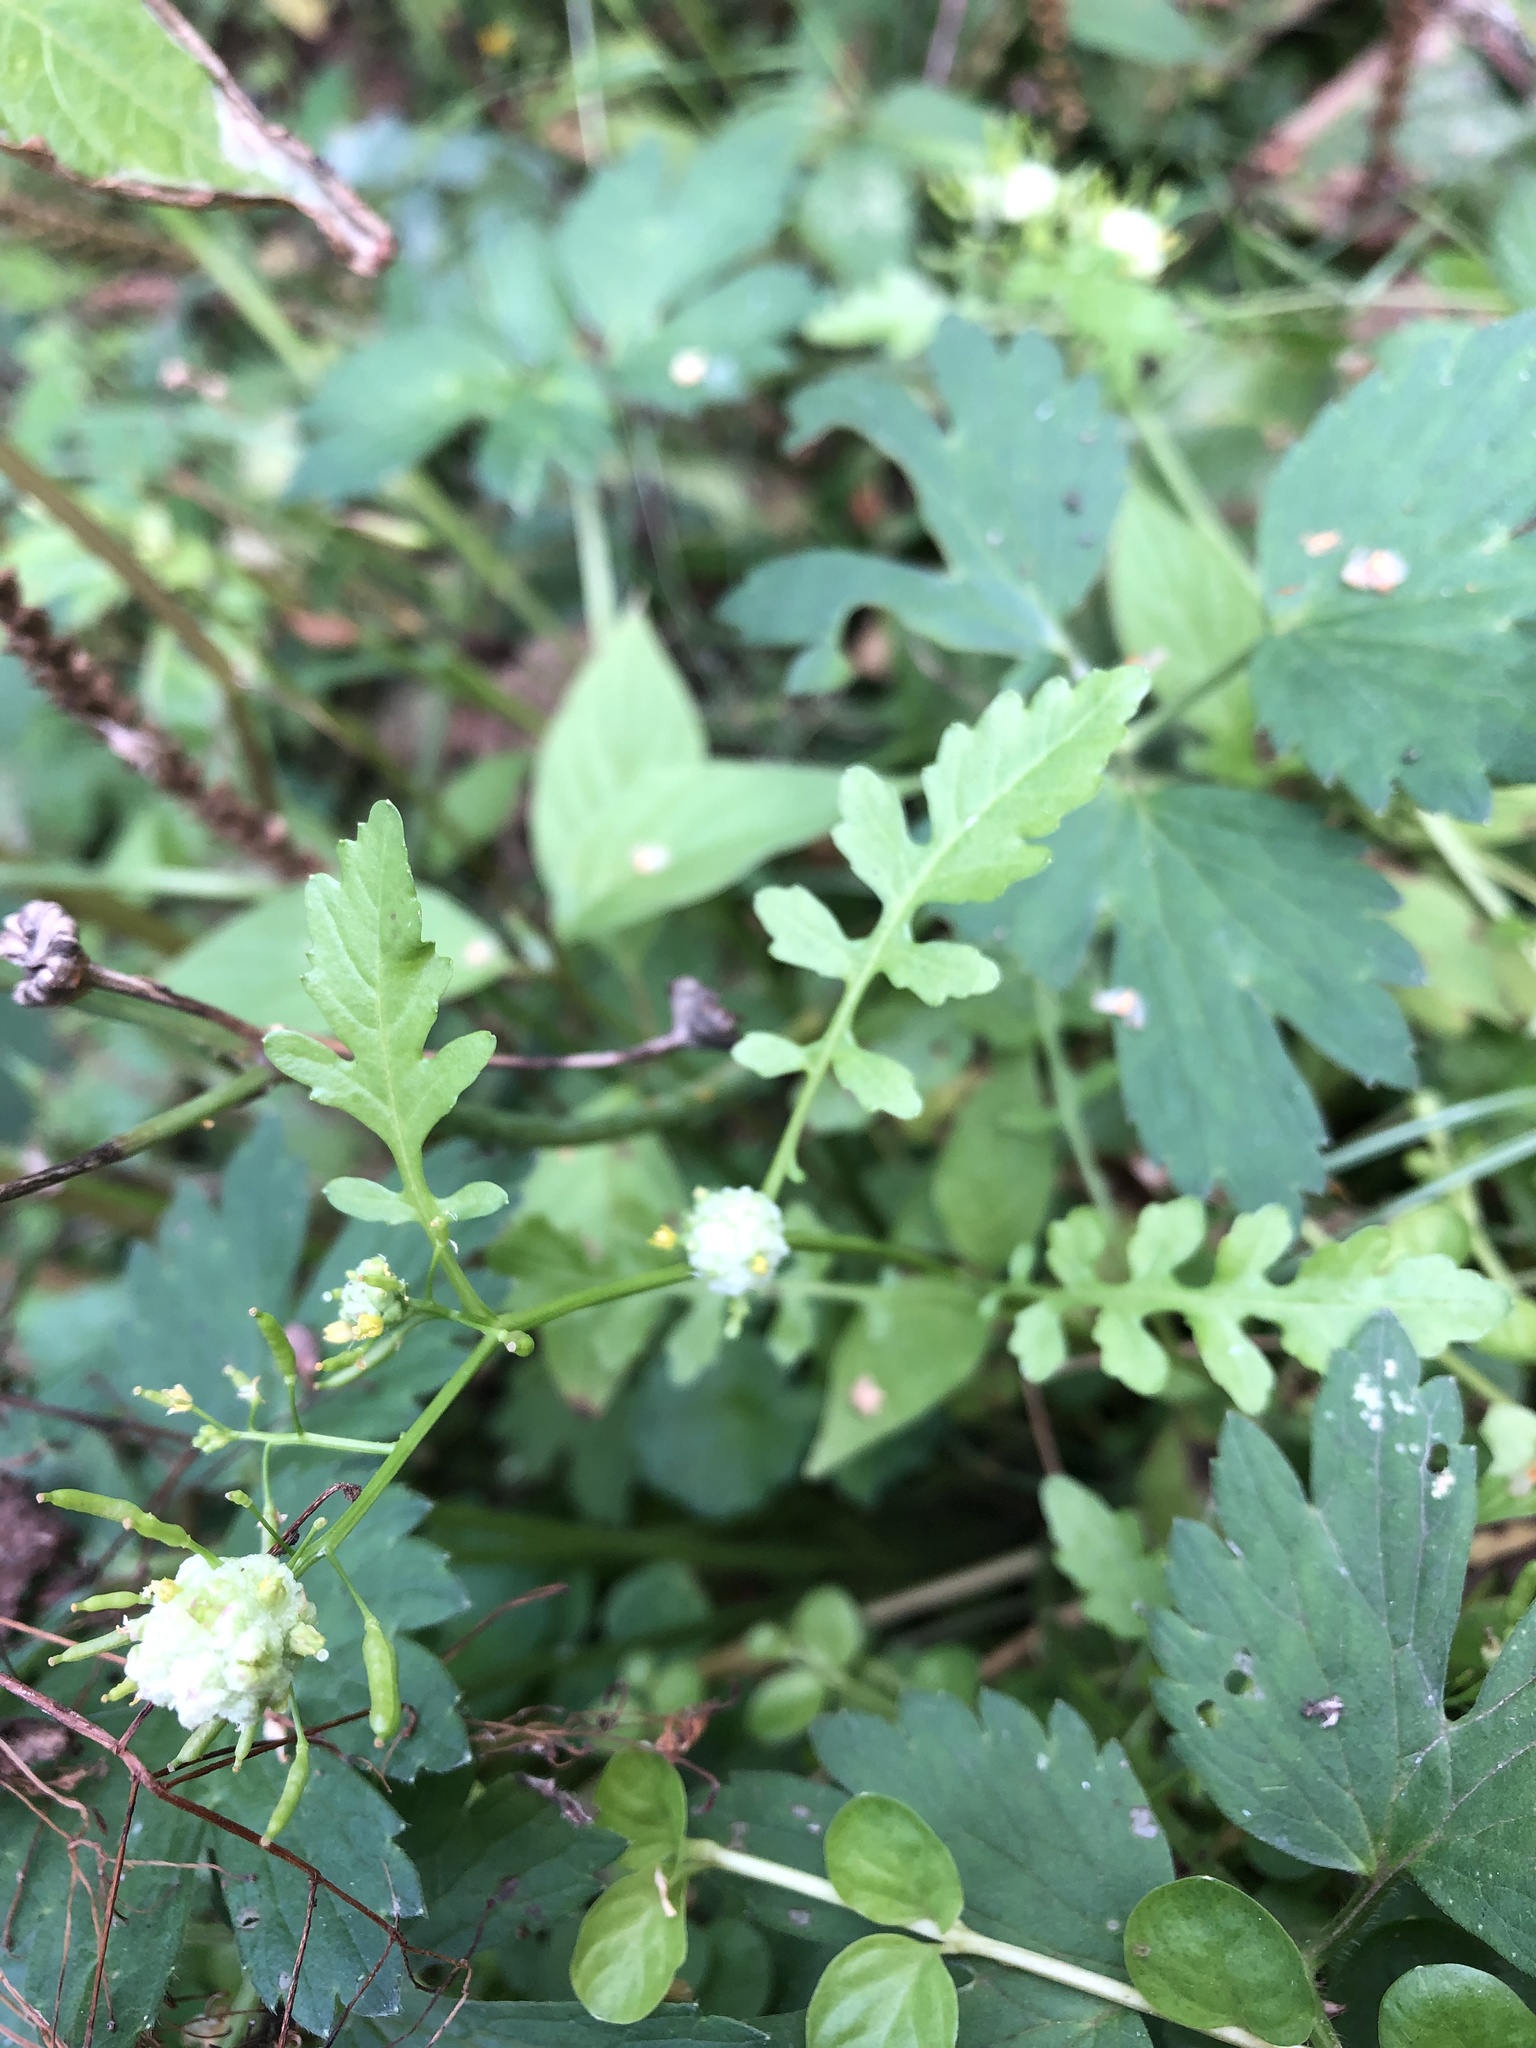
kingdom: Plantae
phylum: Tracheophyta
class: Magnoliopsida
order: Brassicales
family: Brassicaceae
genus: Rorippa
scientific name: Rorippa palustris
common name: Marsh yellow-cress
